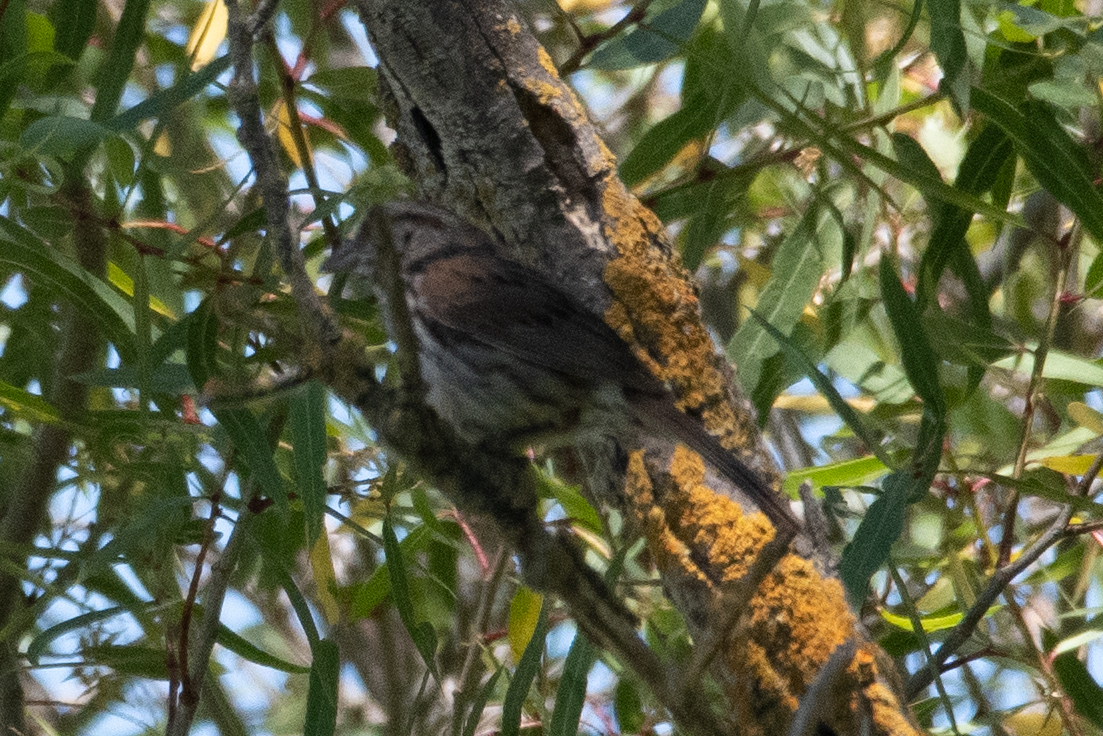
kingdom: Animalia
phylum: Chordata
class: Aves
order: Passeriformes
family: Passerellidae
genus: Melospiza
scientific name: Melospiza melodia
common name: Song sparrow
